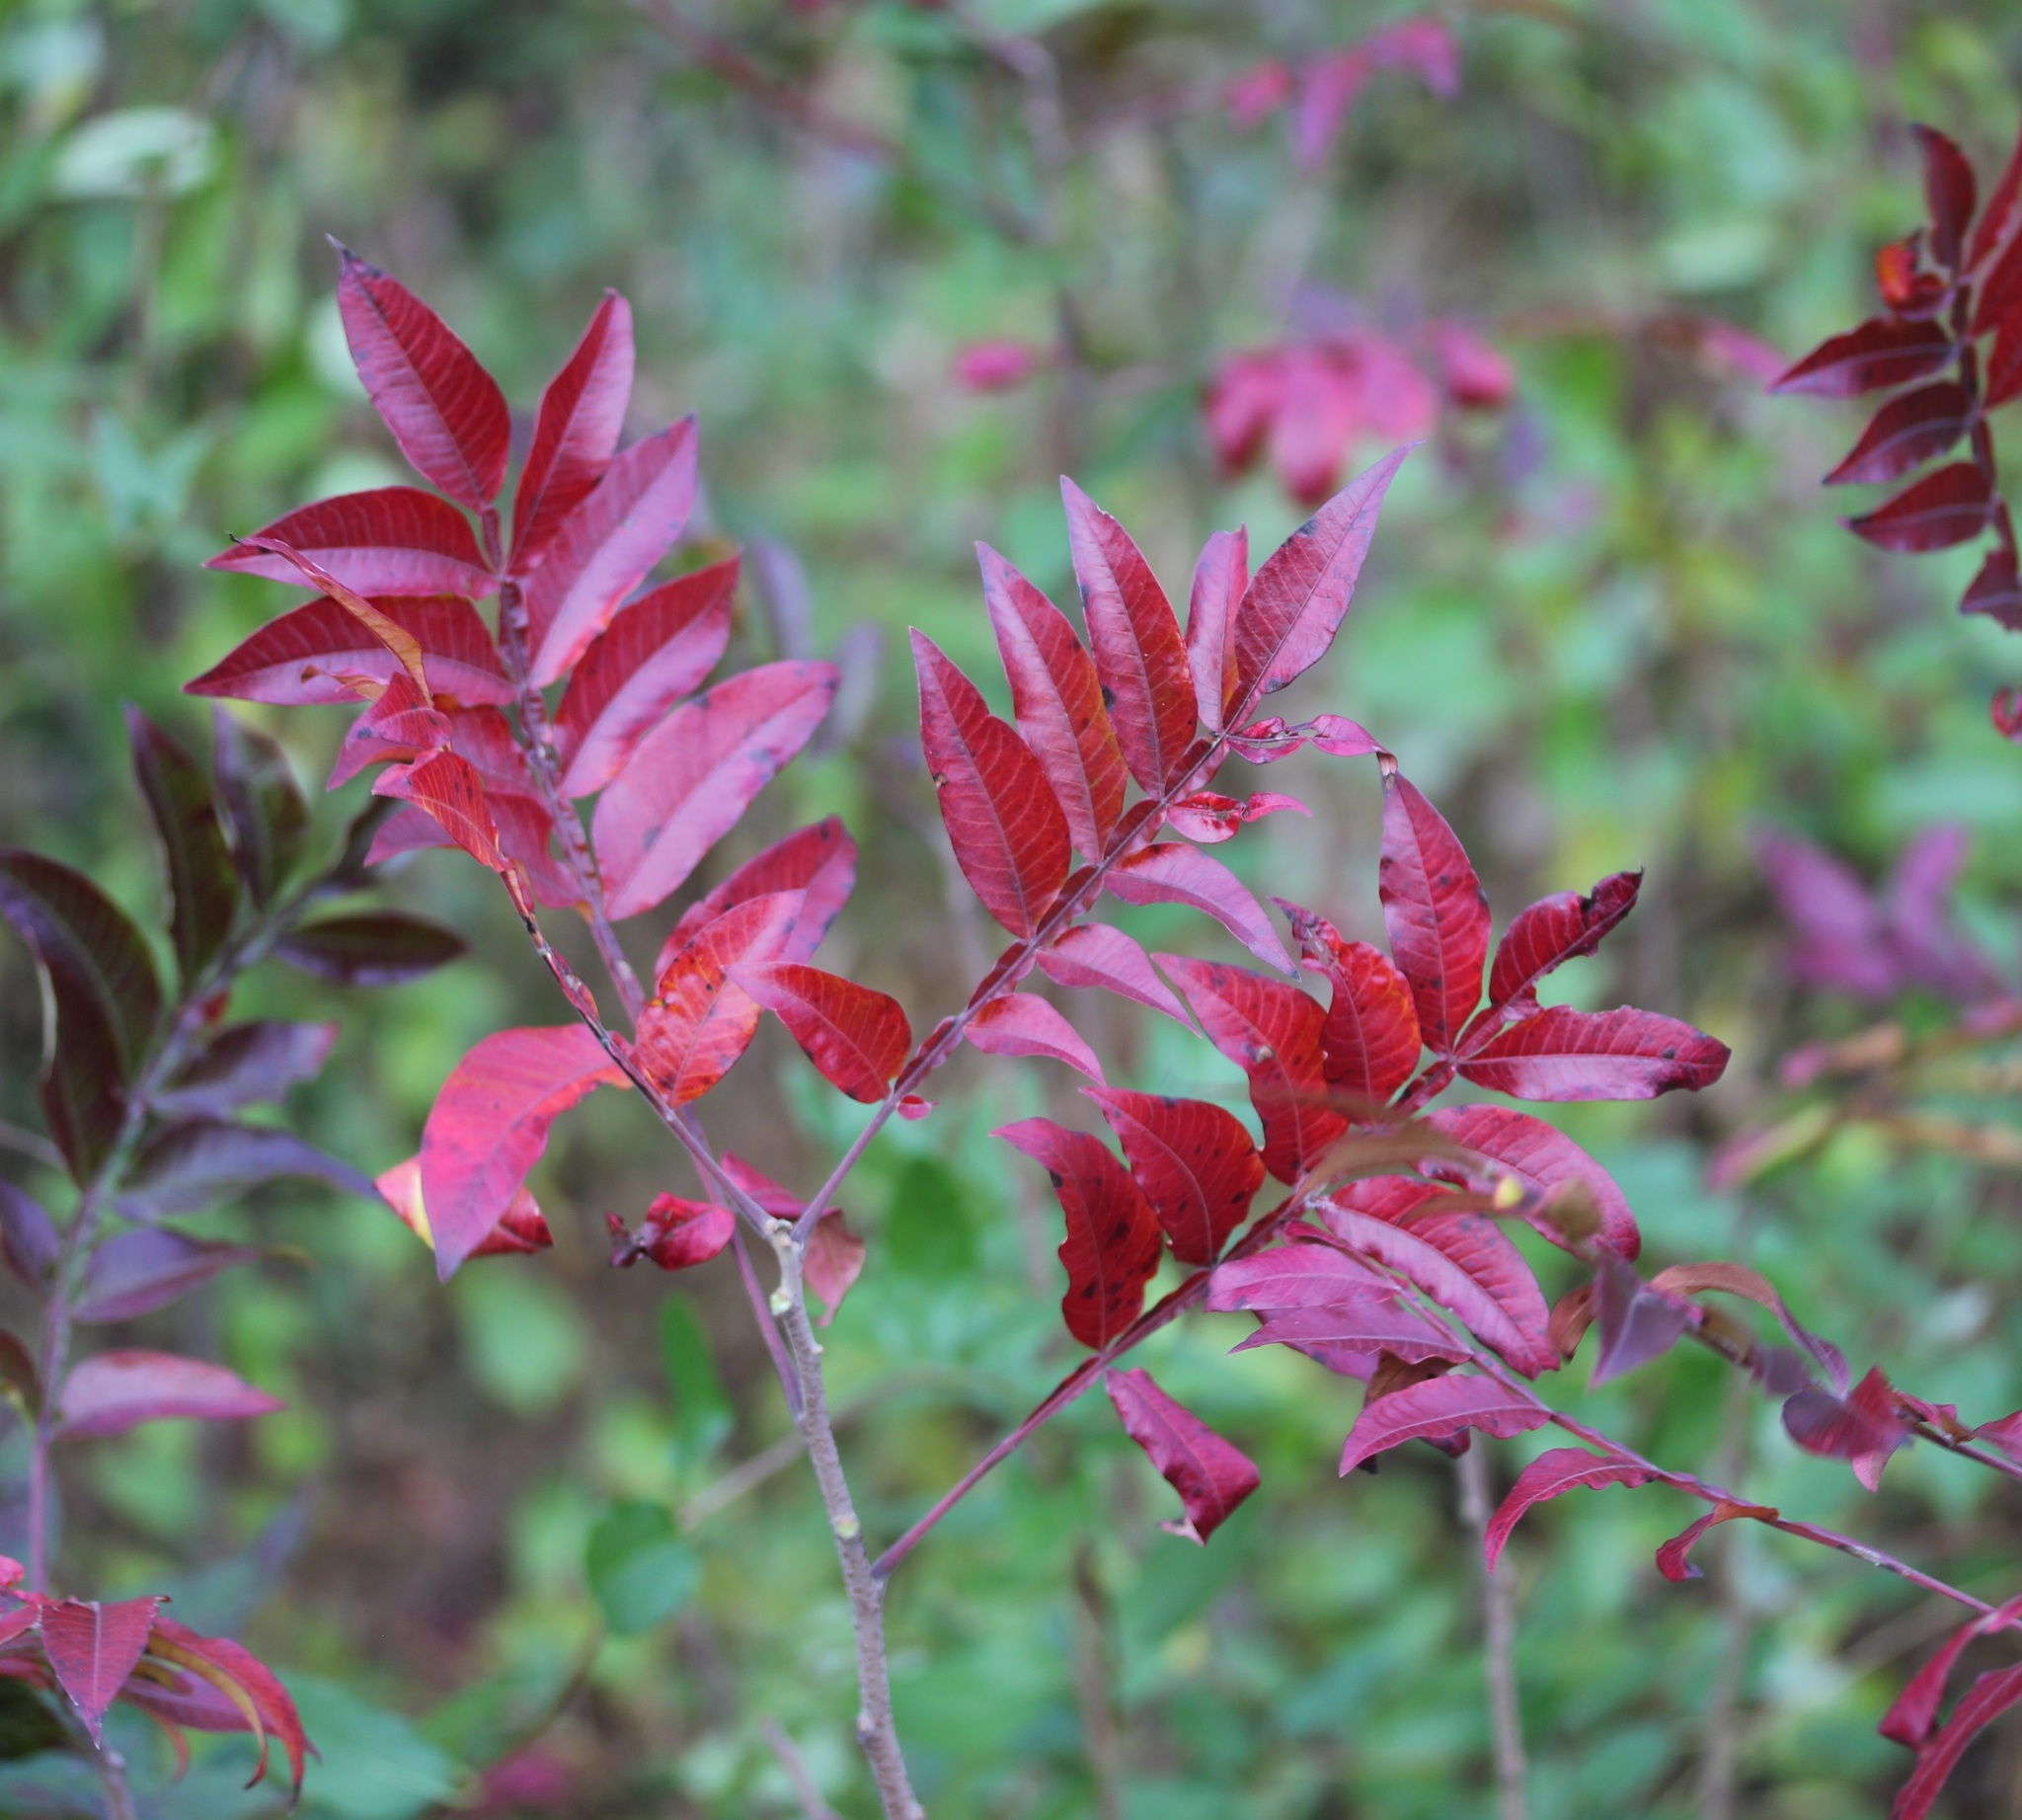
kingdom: Plantae
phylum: Tracheophyta
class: Magnoliopsida
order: Sapindales
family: Anacardiaceae
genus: Rhus
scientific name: Rhus copallina
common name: Shining sumac
